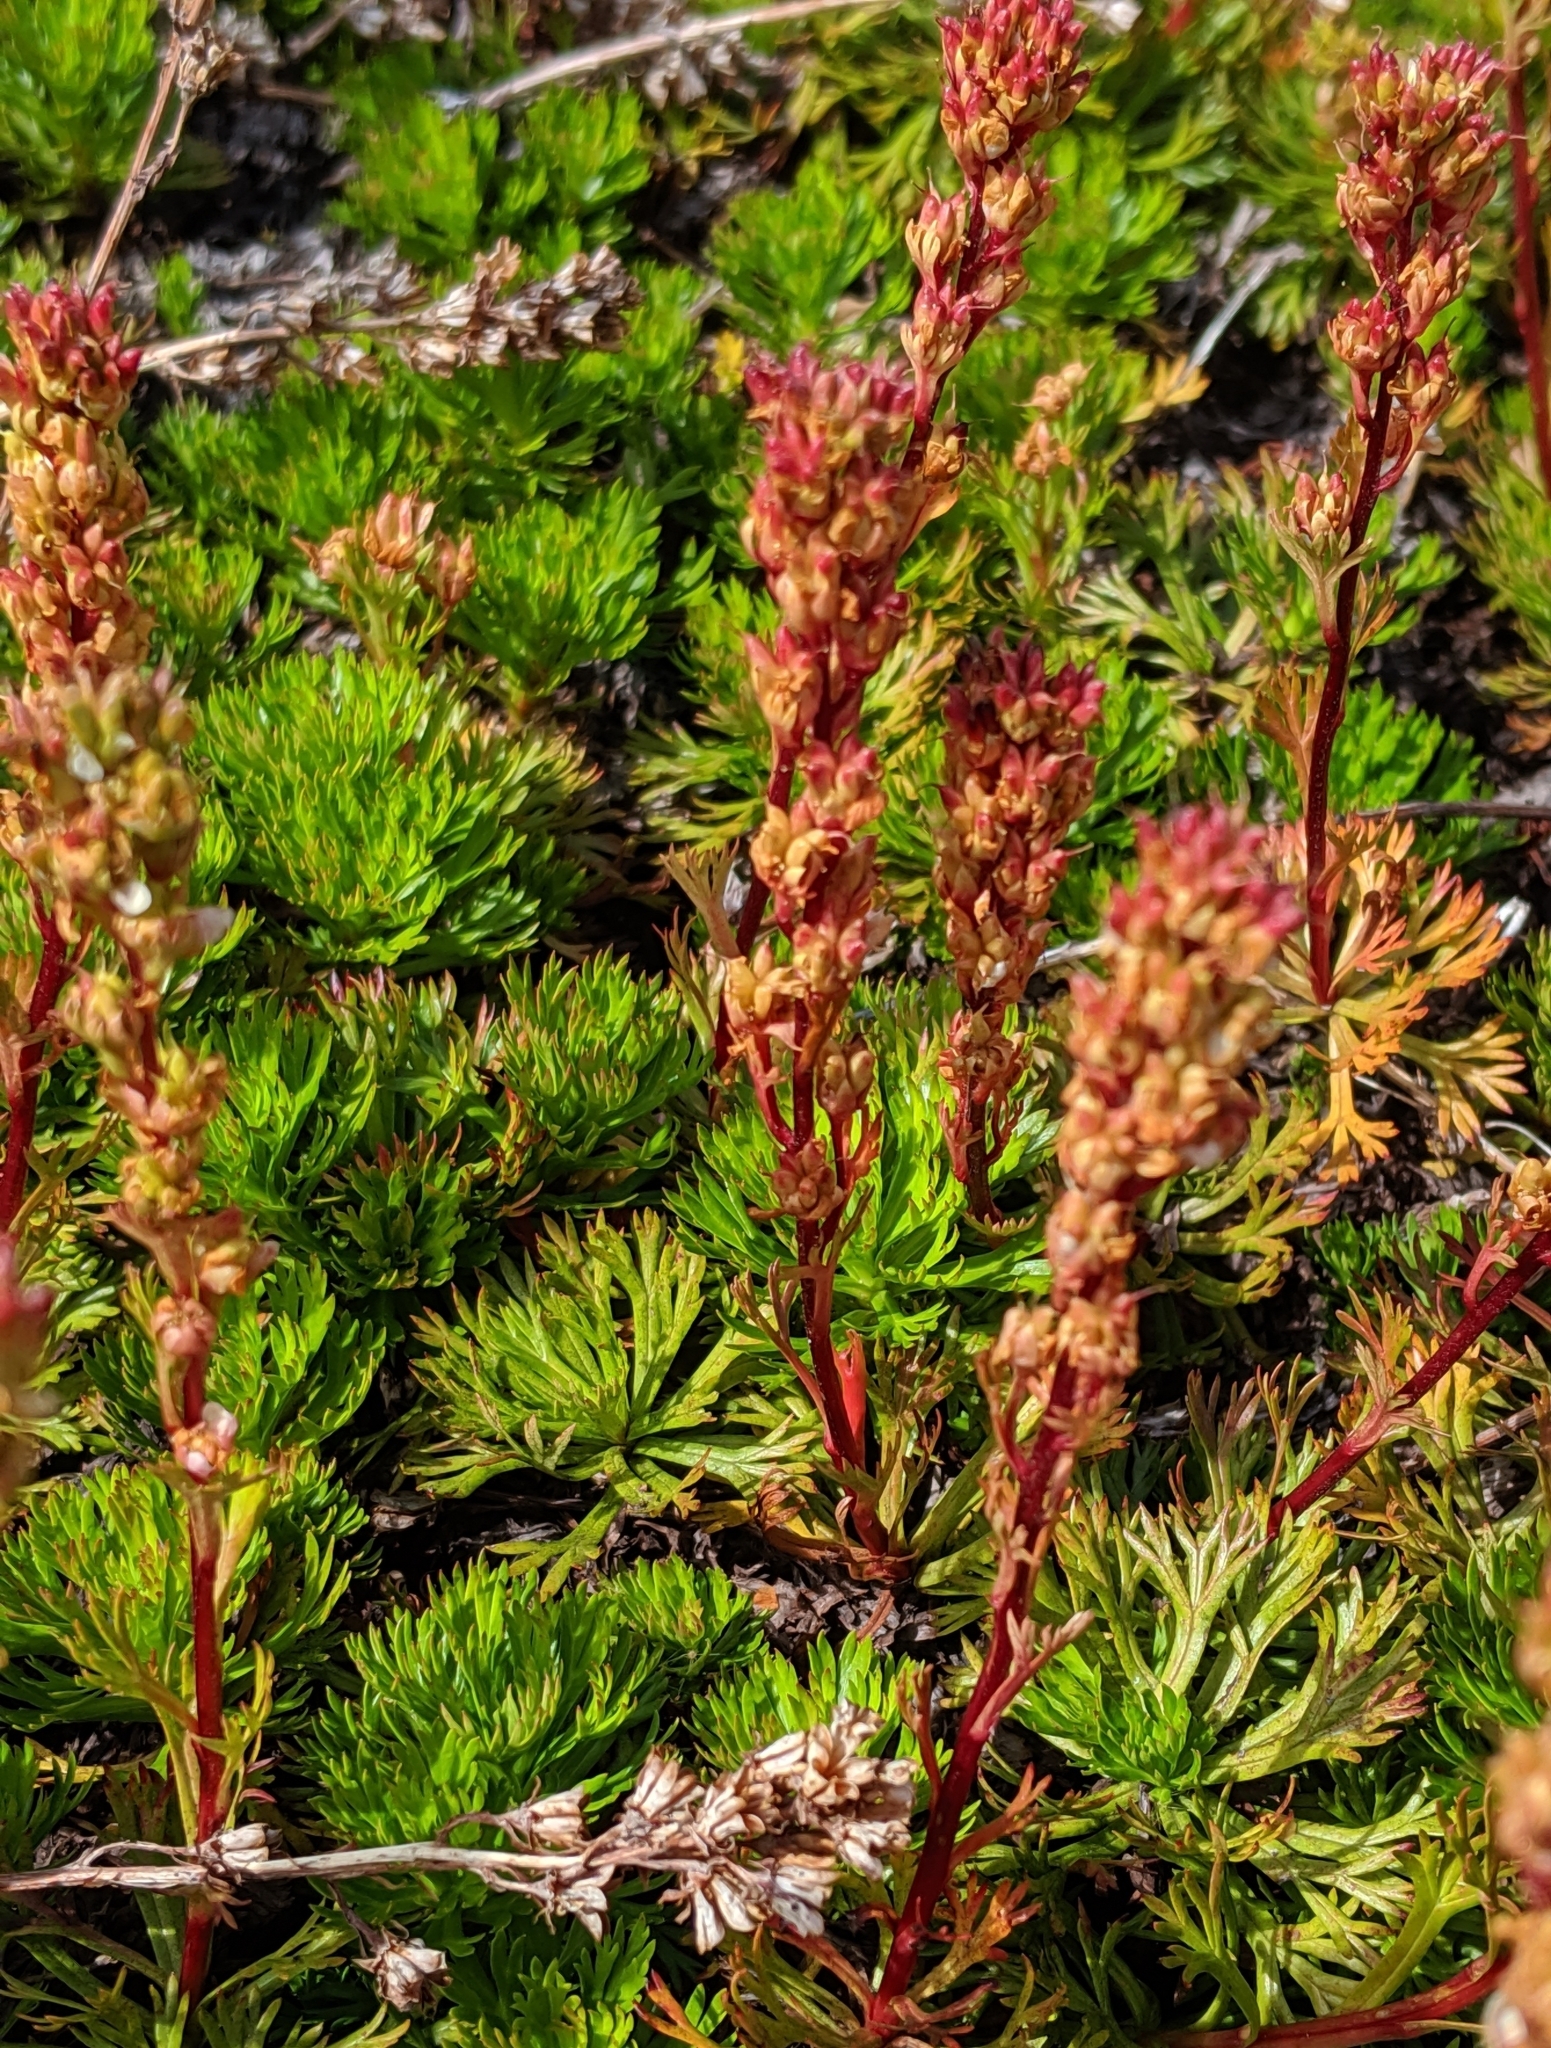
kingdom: Plantae
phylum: Tracheophyta
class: Magnoliopsida
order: Rosales
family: Rosaceae
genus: Luetkea
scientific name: Luetkea pectinata
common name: Partridgefoot
